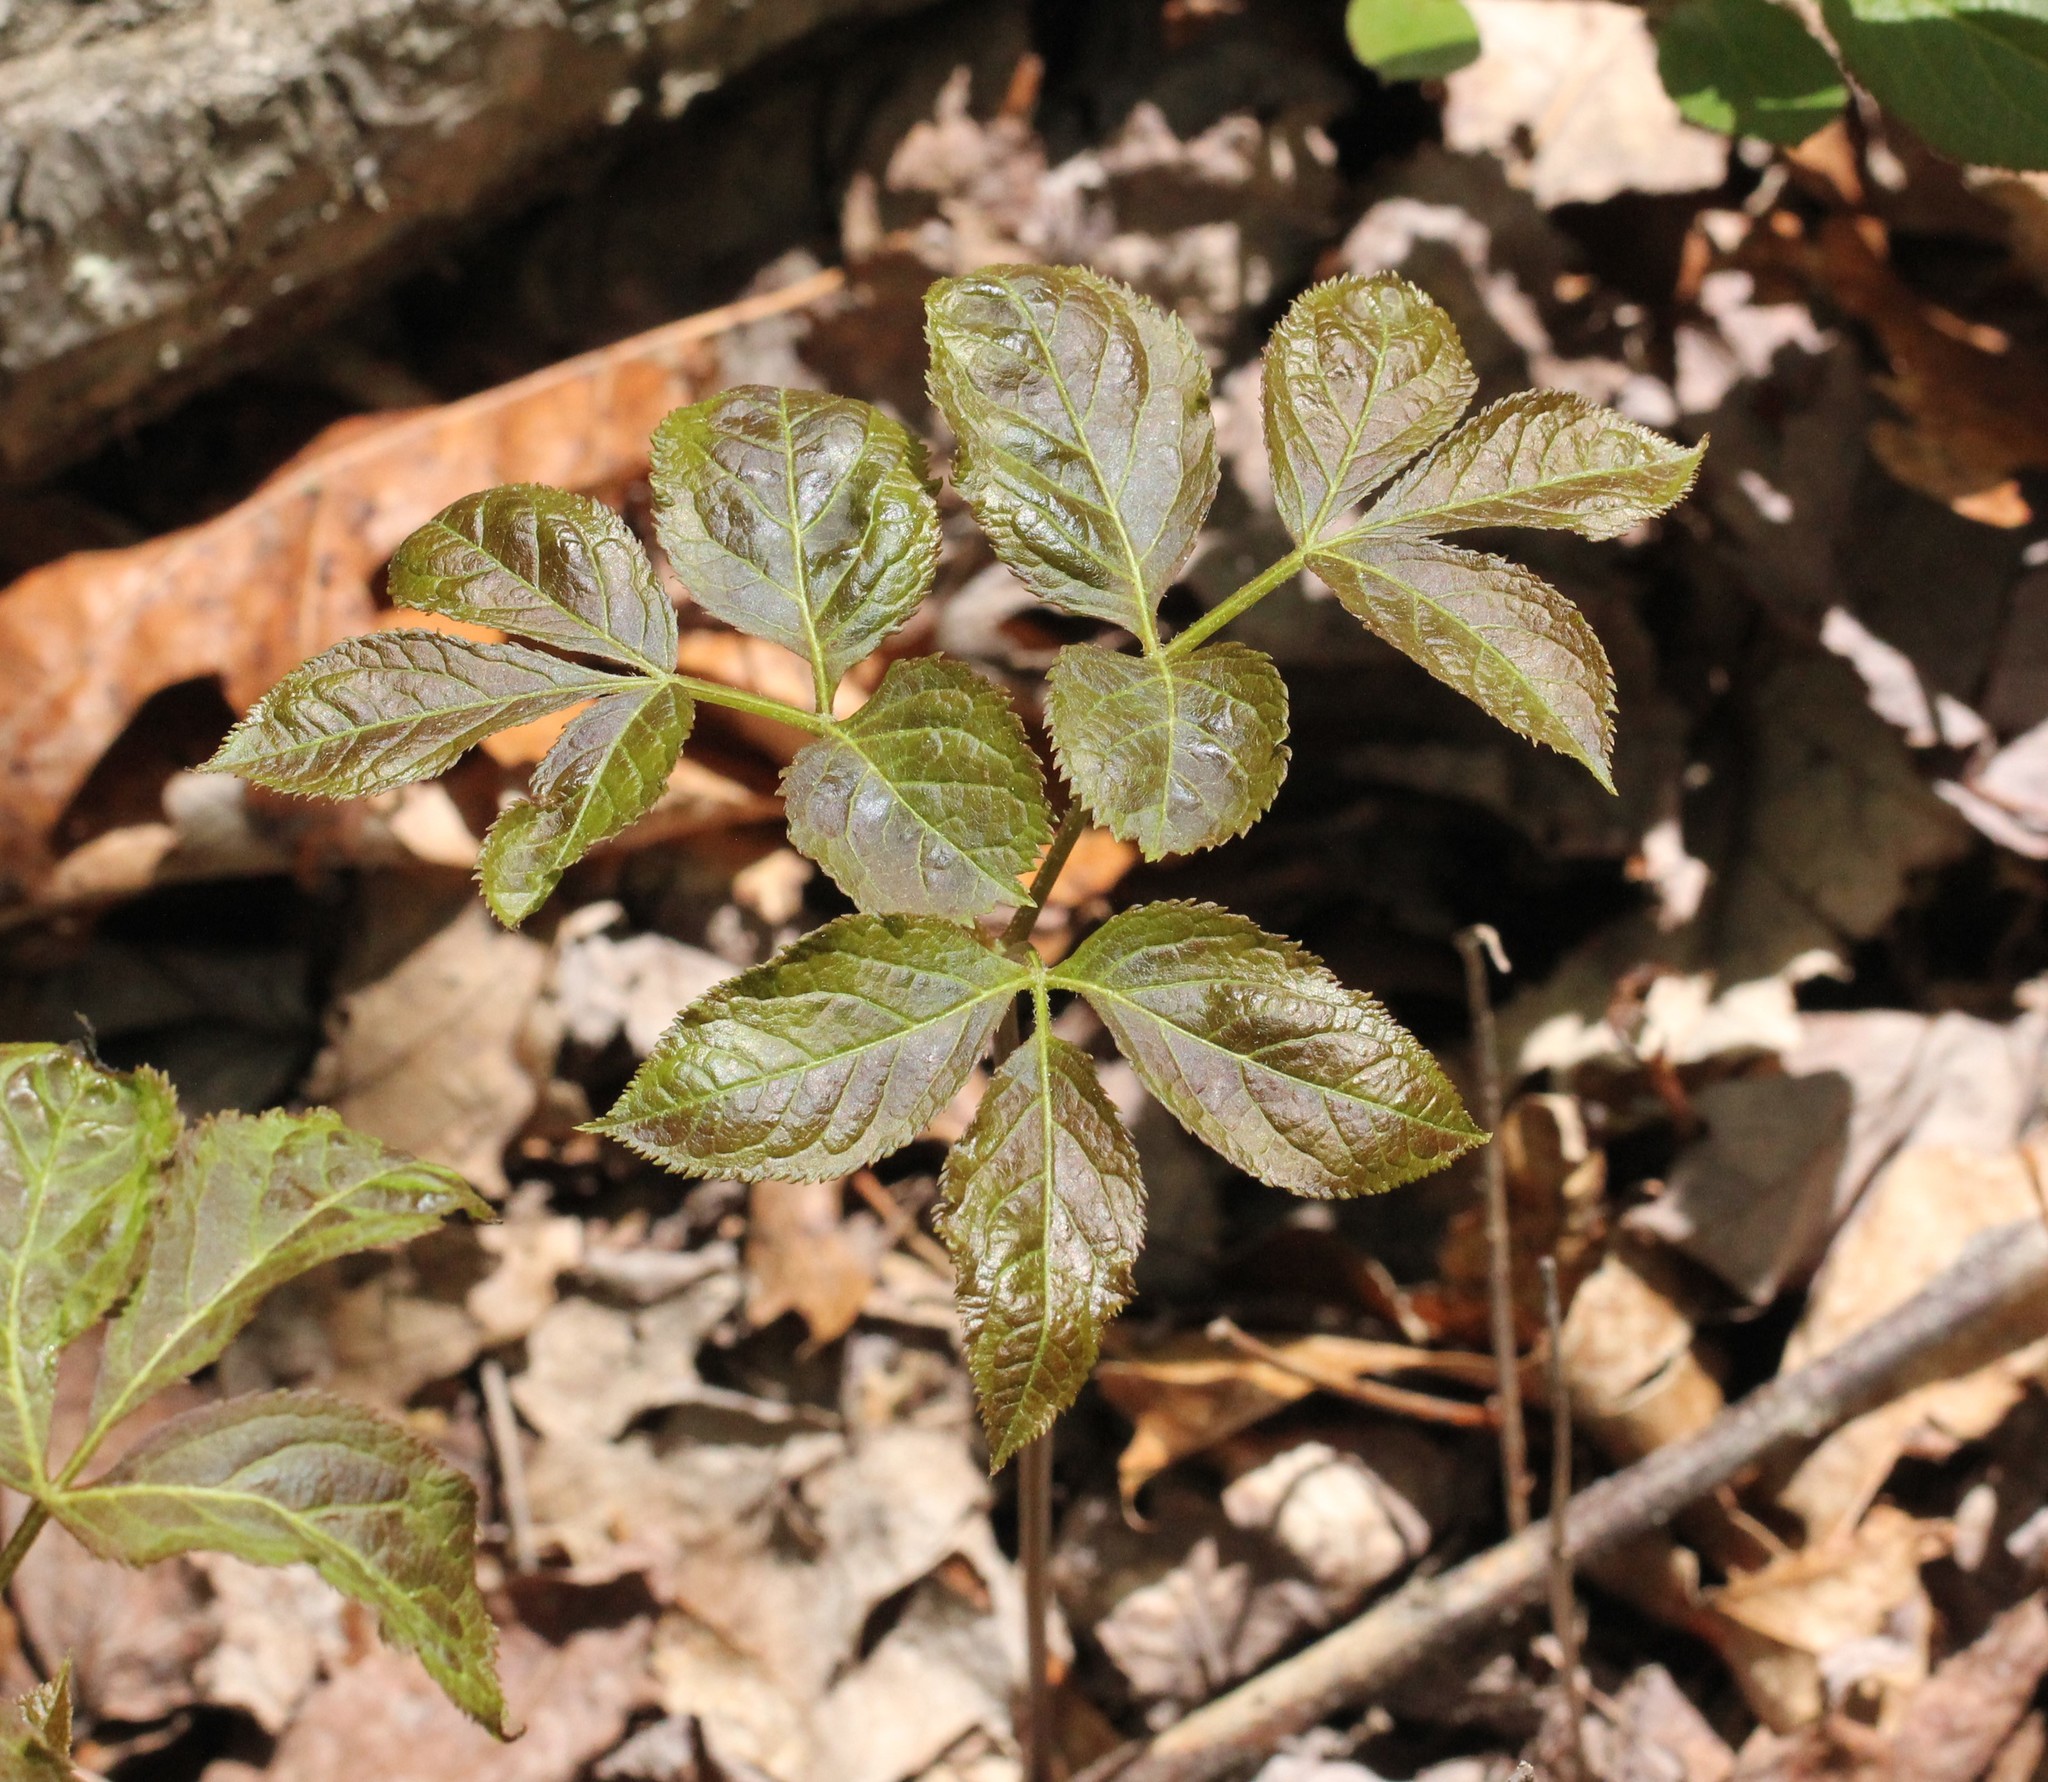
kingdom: Plantae
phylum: Tracheophyta
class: Magnoliopsida
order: Apiales
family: Araliaceae
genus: Aralia
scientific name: Aralia nudicaulis
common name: Wild sarsaparilla
